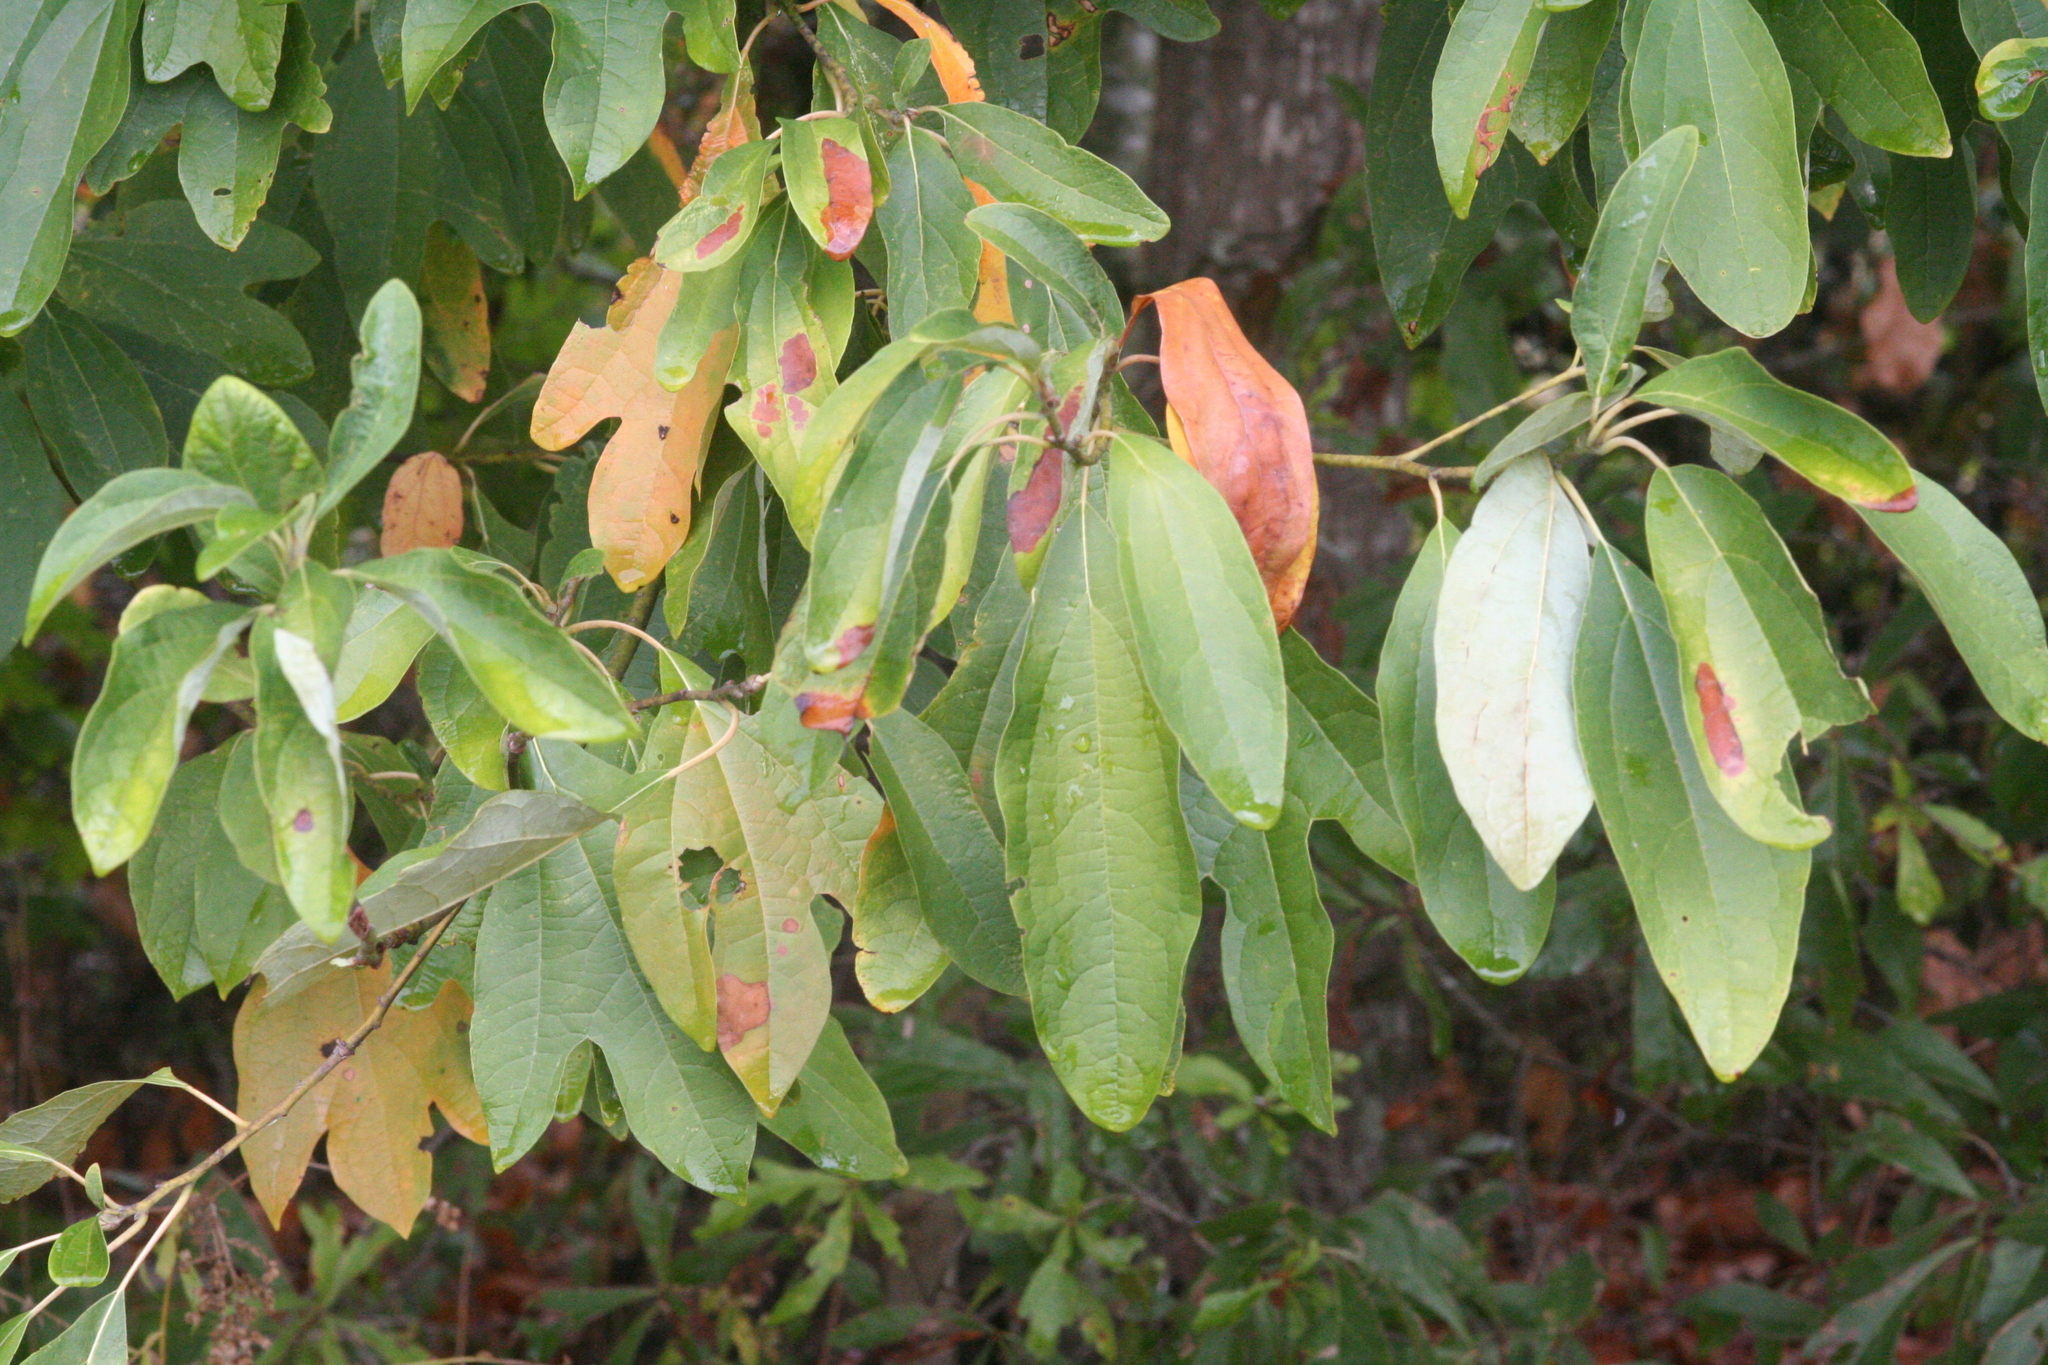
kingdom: Plantae
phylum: Tracheophyta
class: Magnoliopsida
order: Laurales
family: Lauraceae
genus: Sassafras
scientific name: Sassafras albidum
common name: Sassafras
